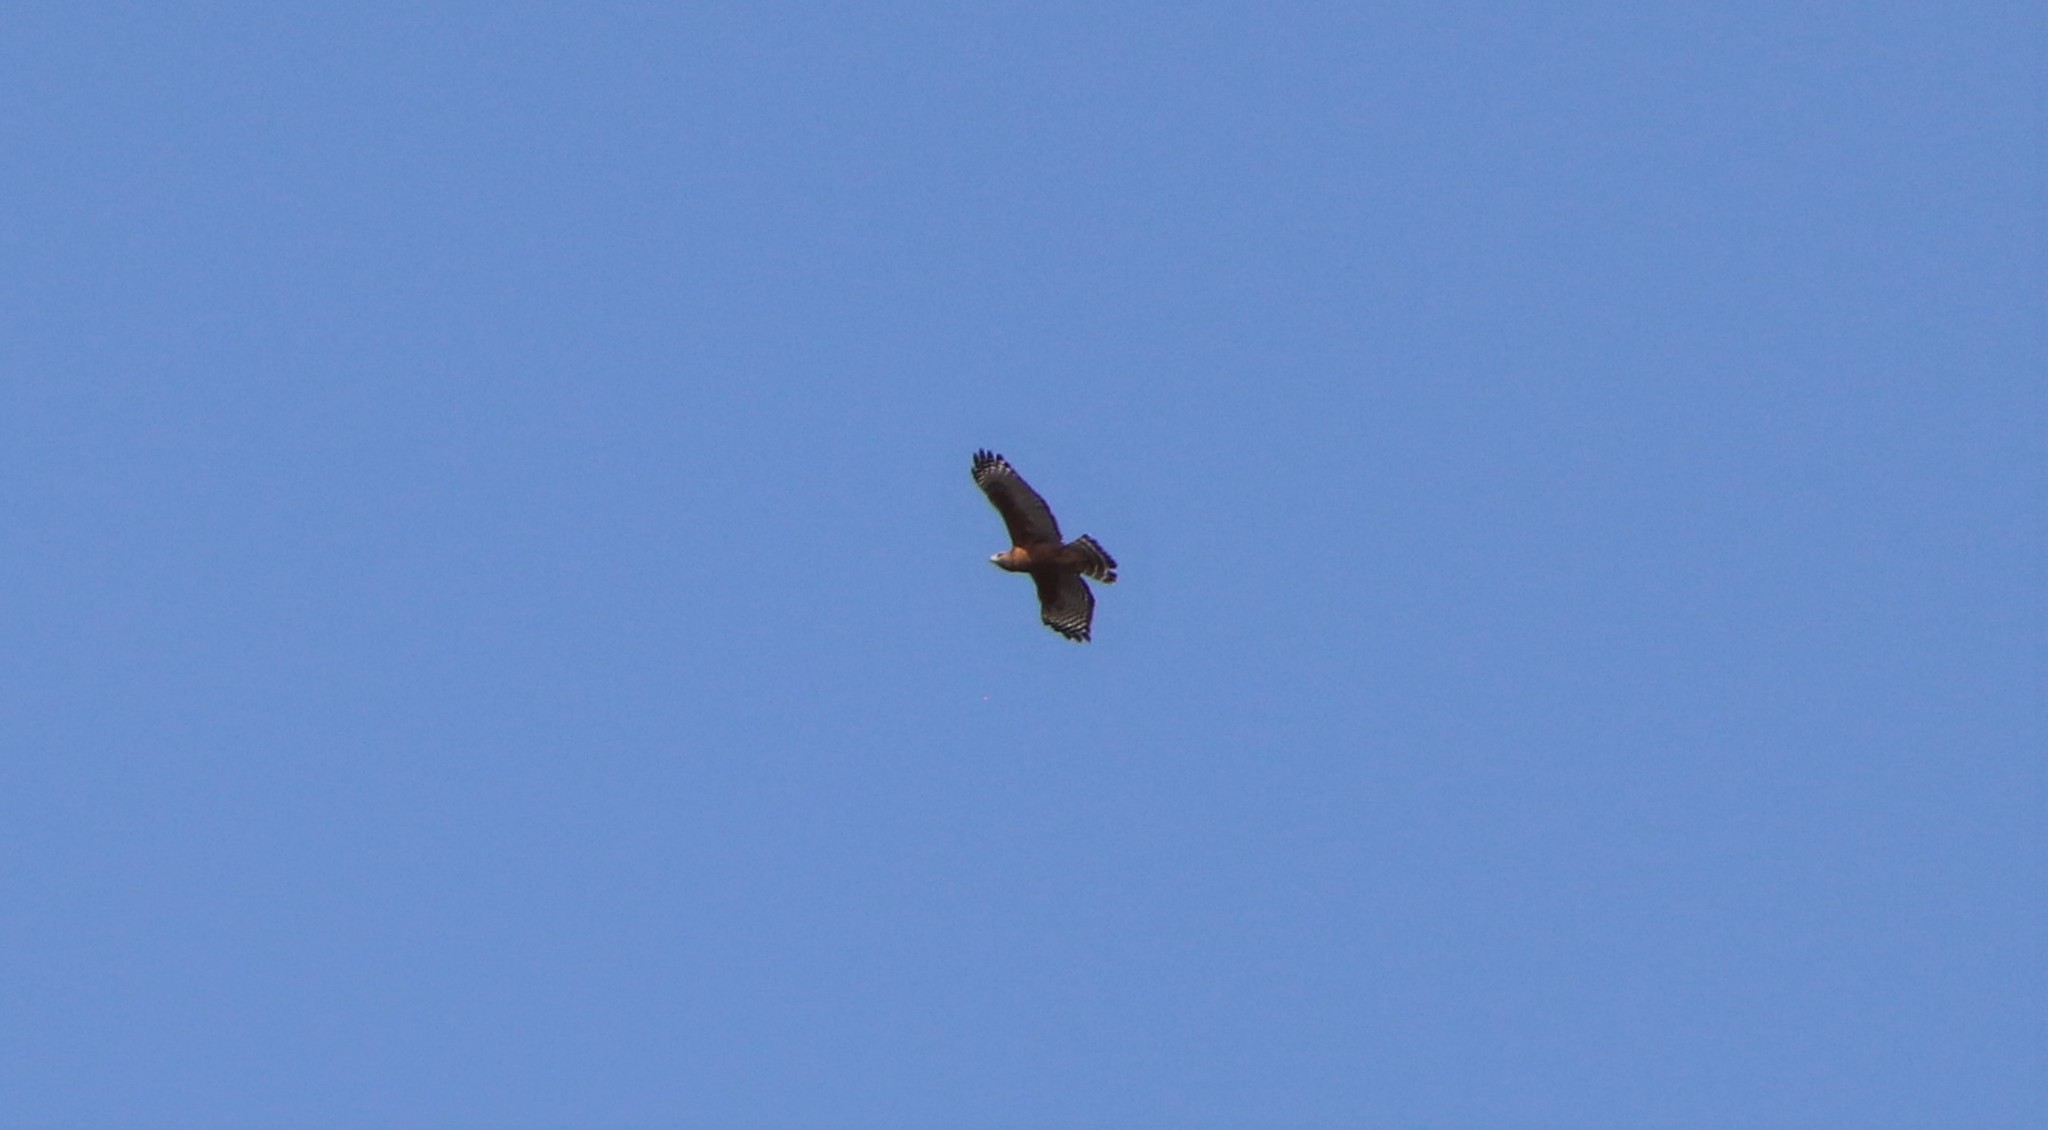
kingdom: Animalia
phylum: Chordata
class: Aves
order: Accipitriformes
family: Accipitridae
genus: Buteo
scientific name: Buteo lineatus
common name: Red-shouldered hawk
